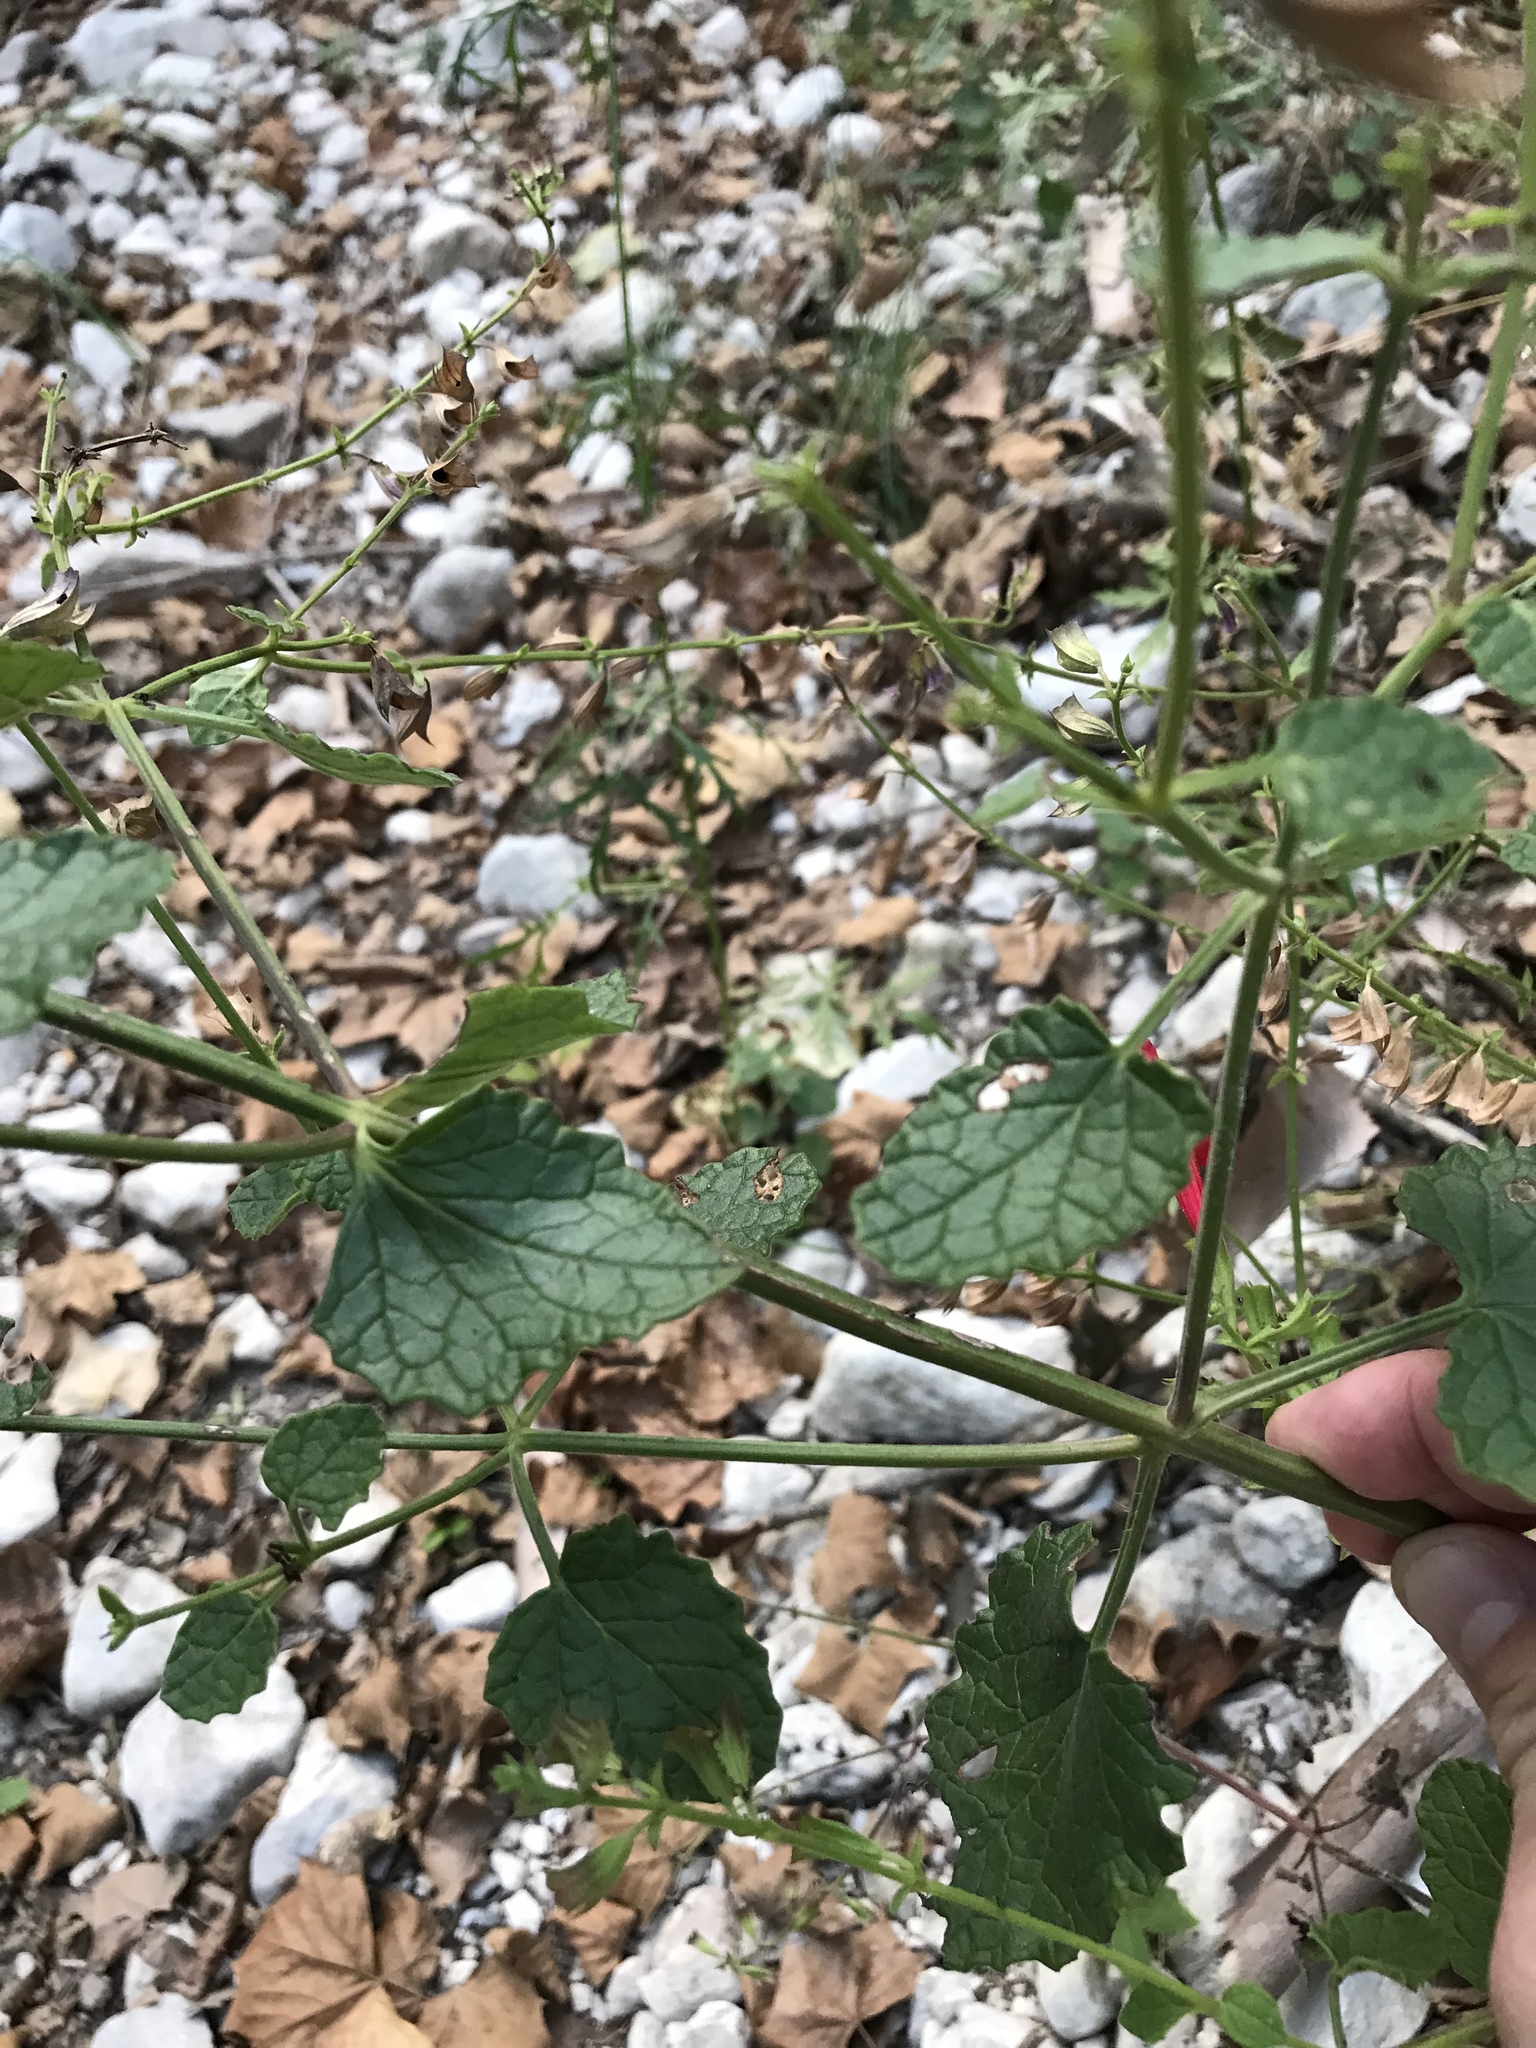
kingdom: Plantae
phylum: Tracheophyta
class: Magnoliopsida
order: Lamiales
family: Lamiaceae
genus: Salvia
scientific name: Salvia roemeriana
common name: Cedar sage
